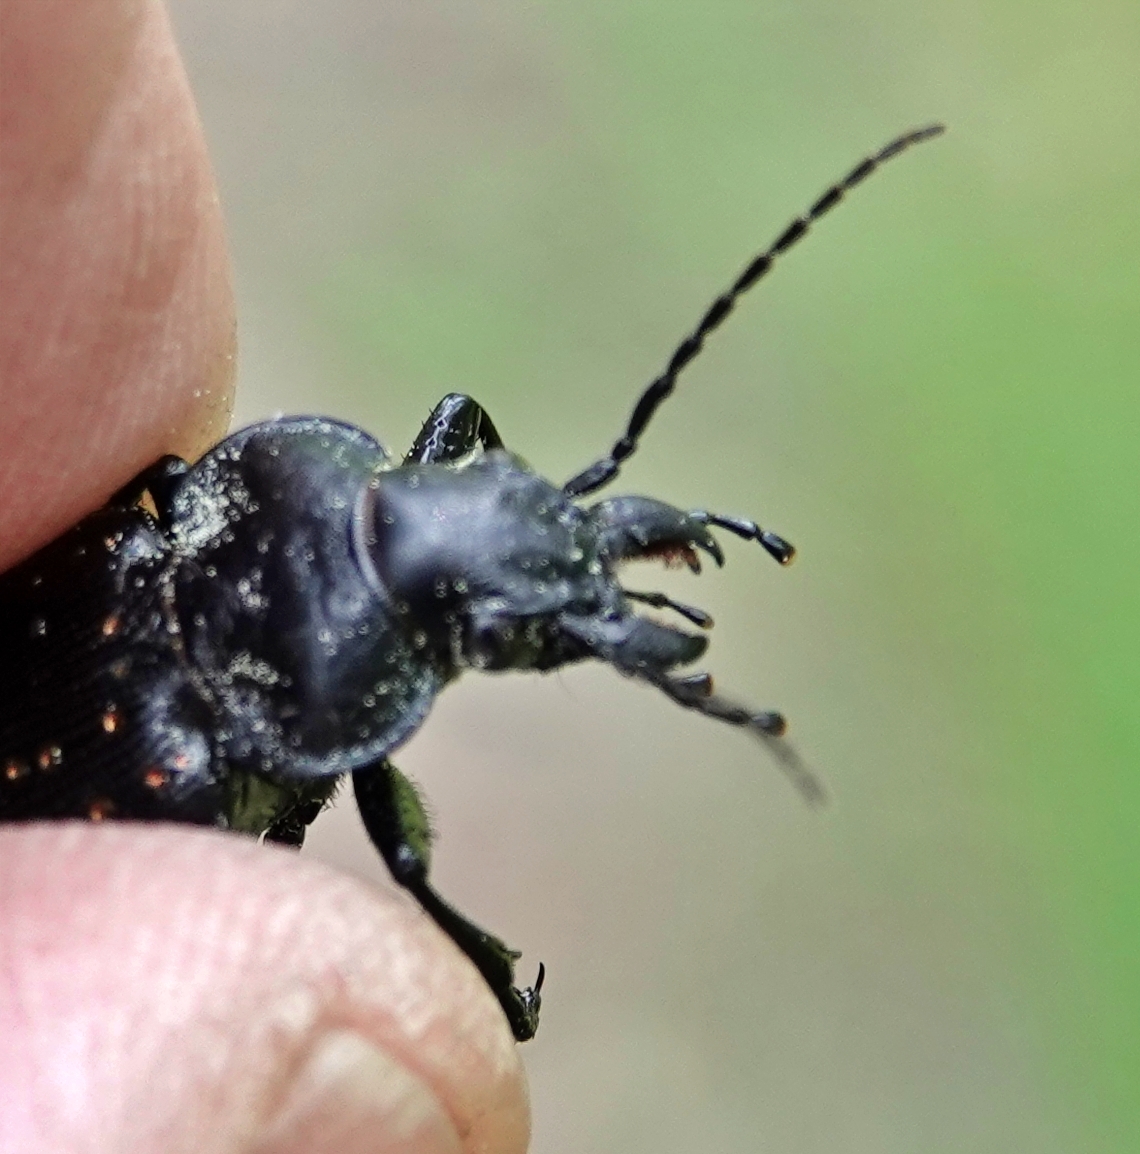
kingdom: Animalia
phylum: Arthropoda
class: Insecta
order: Coleoptera
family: Carabidae
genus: Calosoma
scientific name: Calosoma calidum
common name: Fiery hunter
